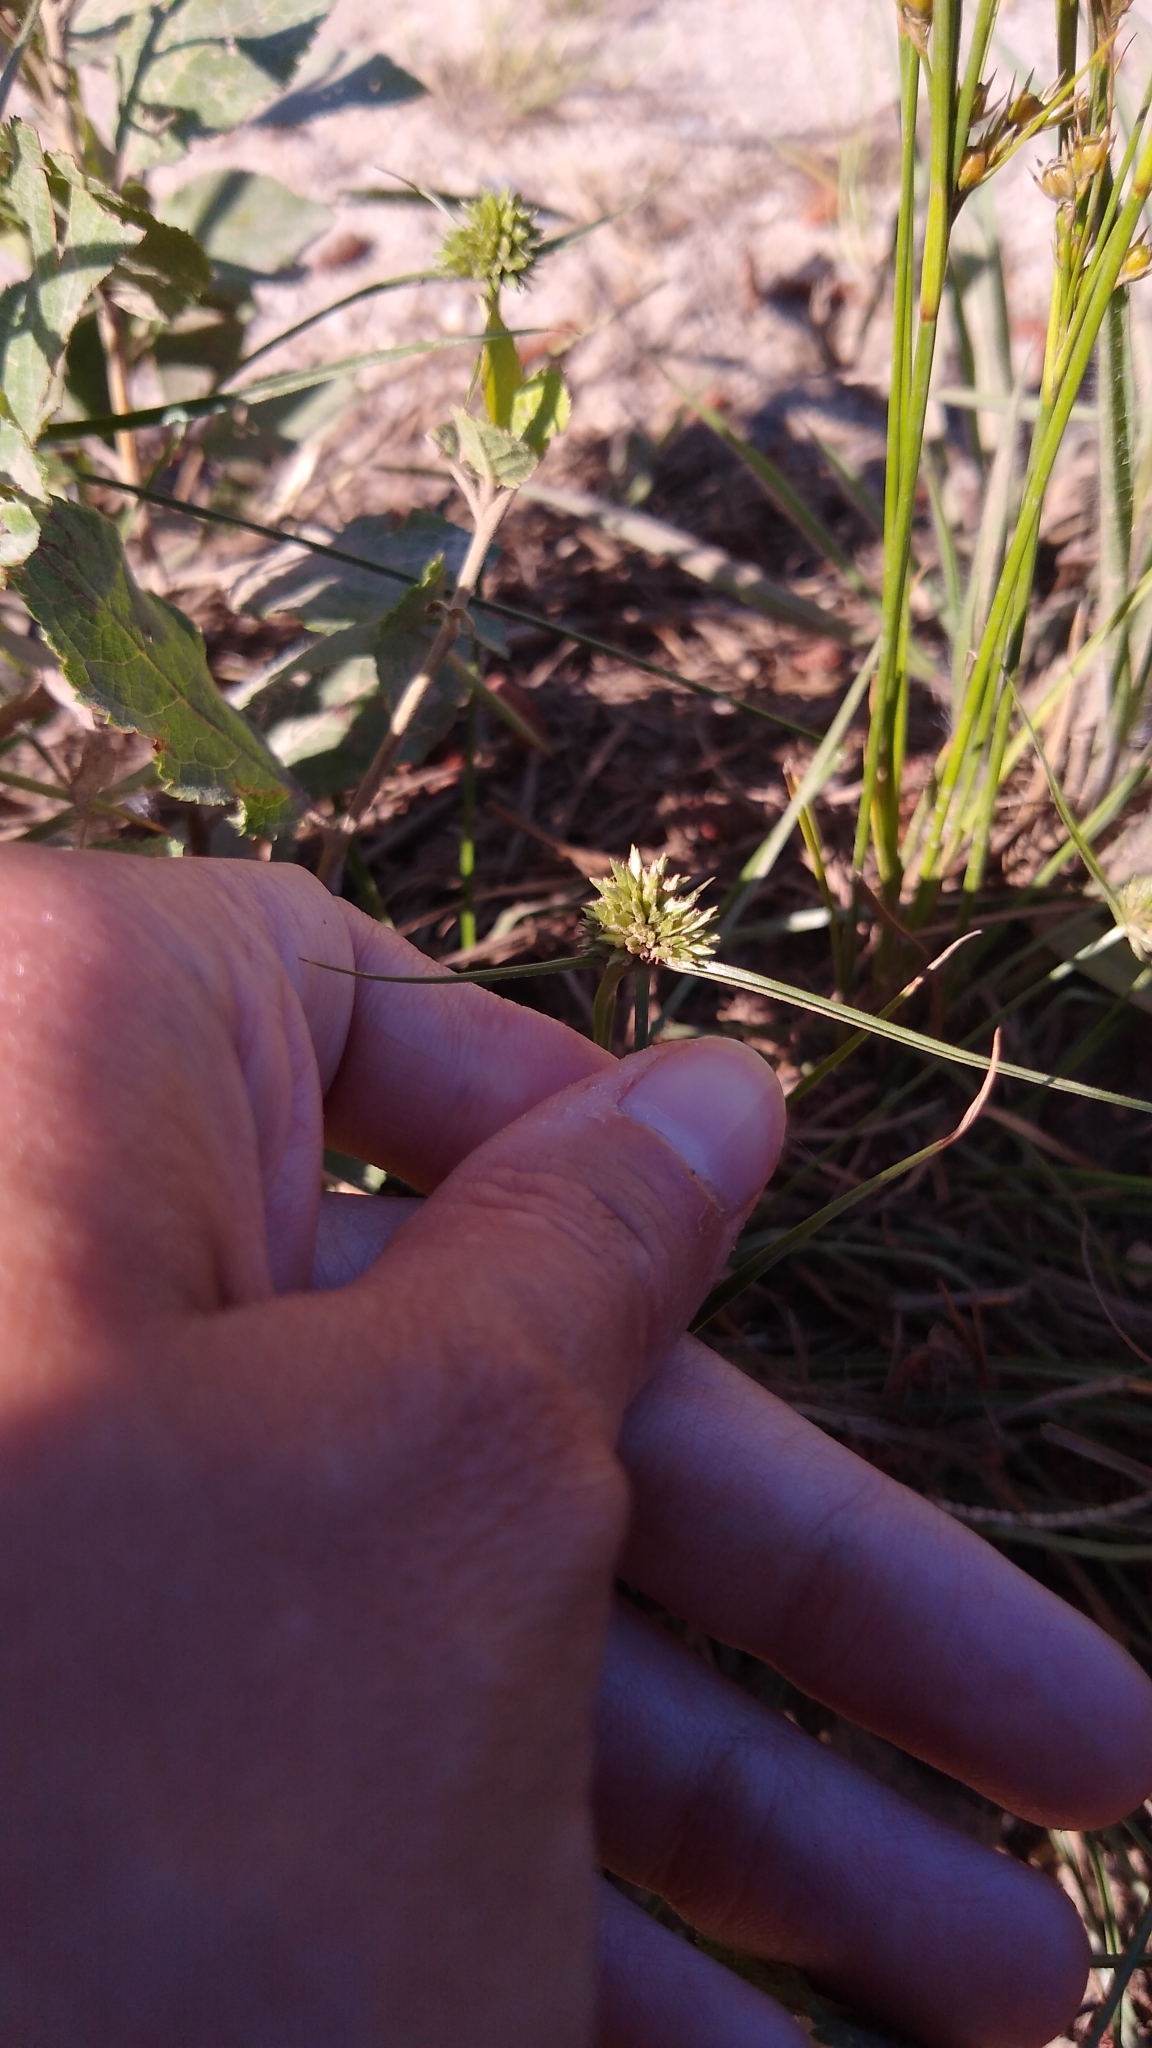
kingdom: Plantae
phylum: Tracheophyta
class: Liliopsida
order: Poales
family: Cyperaceae
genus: Cyperus
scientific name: Cyperus lupulinus
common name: Great plains flatsedge
